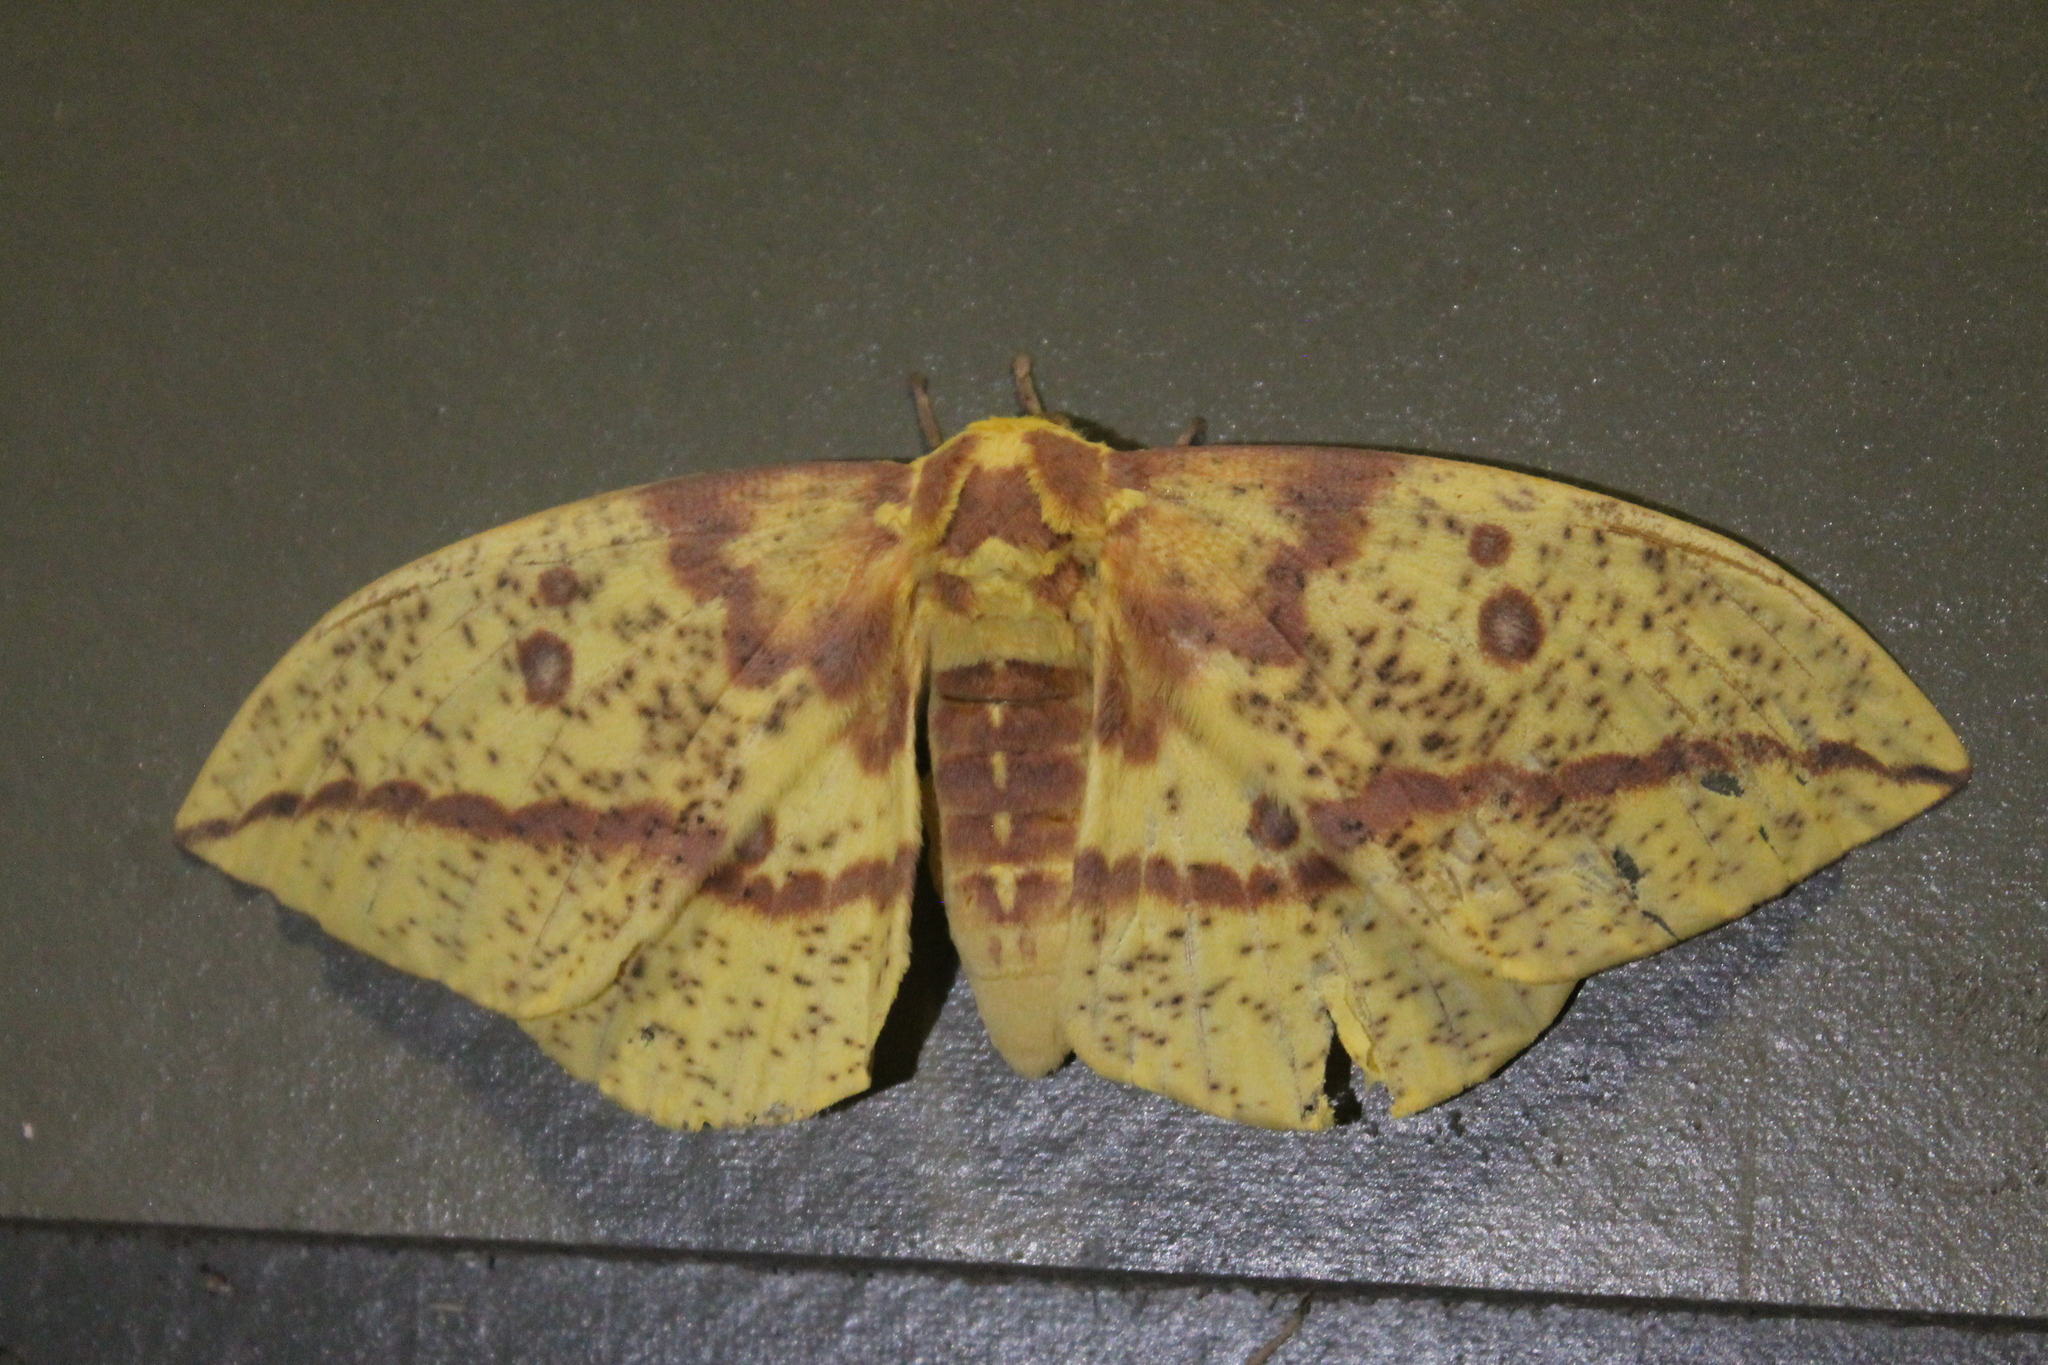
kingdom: Animalia
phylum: Arthropoda
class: Insecta
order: Lepidoptera
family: Saturniidae
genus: Eacles
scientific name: Eacles imperialis
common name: Imperial moth
